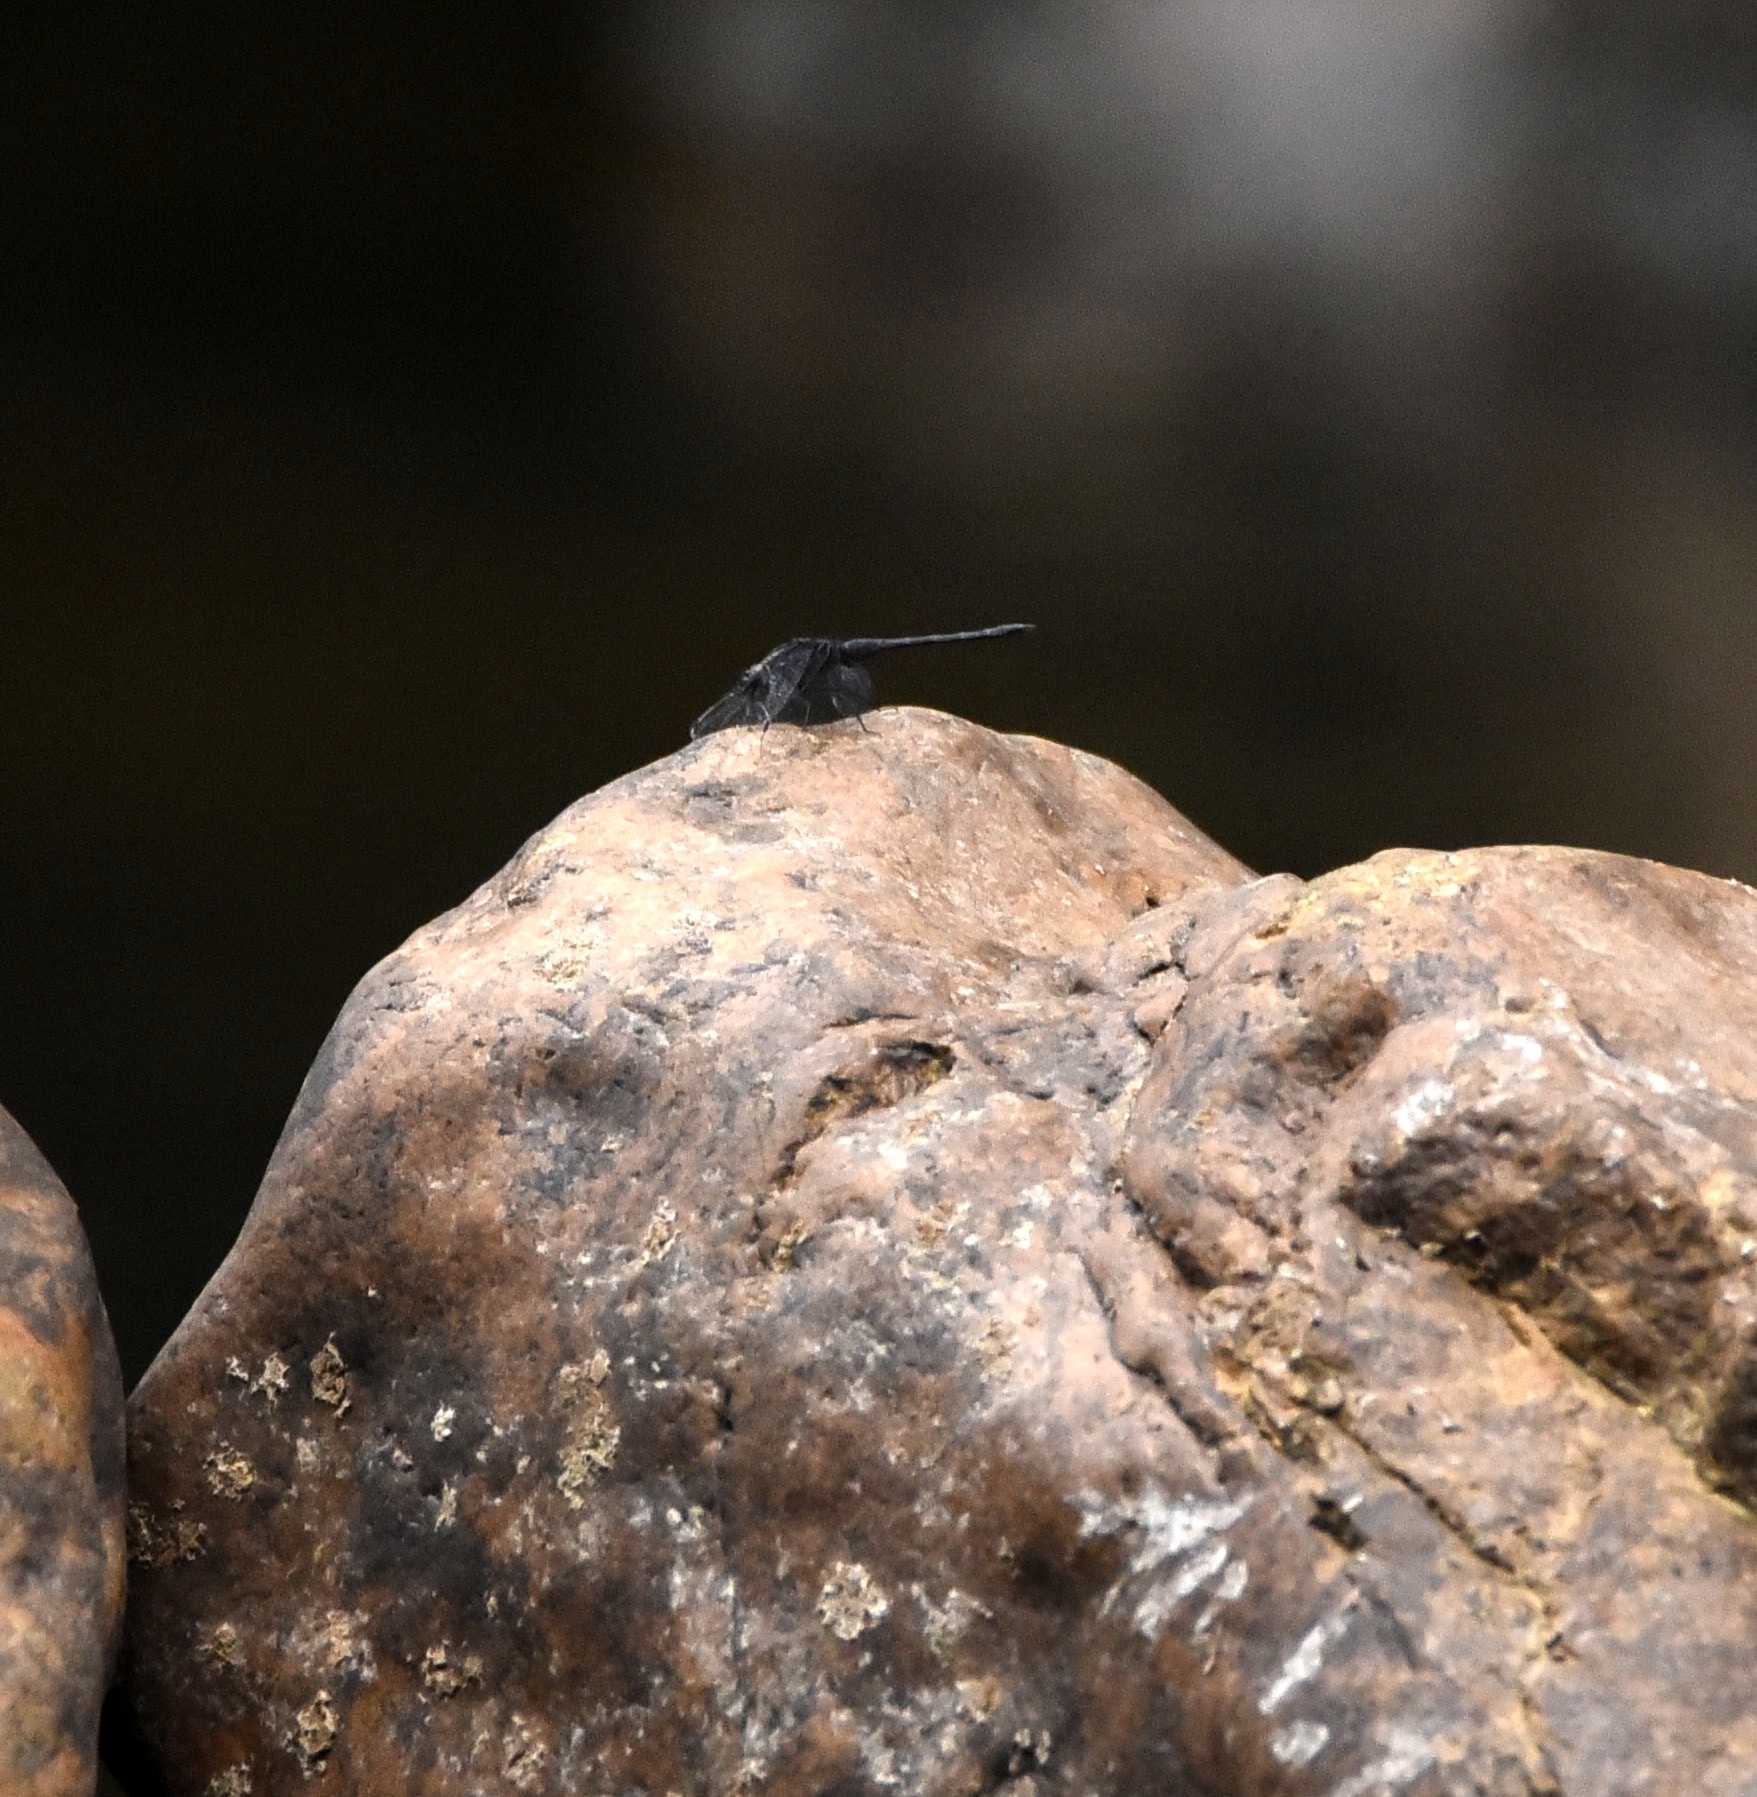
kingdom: Animalia
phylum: Arthropoda
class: Insecta
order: Odonata
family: Libellulidae
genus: Trithemis
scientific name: Trithemis festiva
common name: Indigo dropwing
